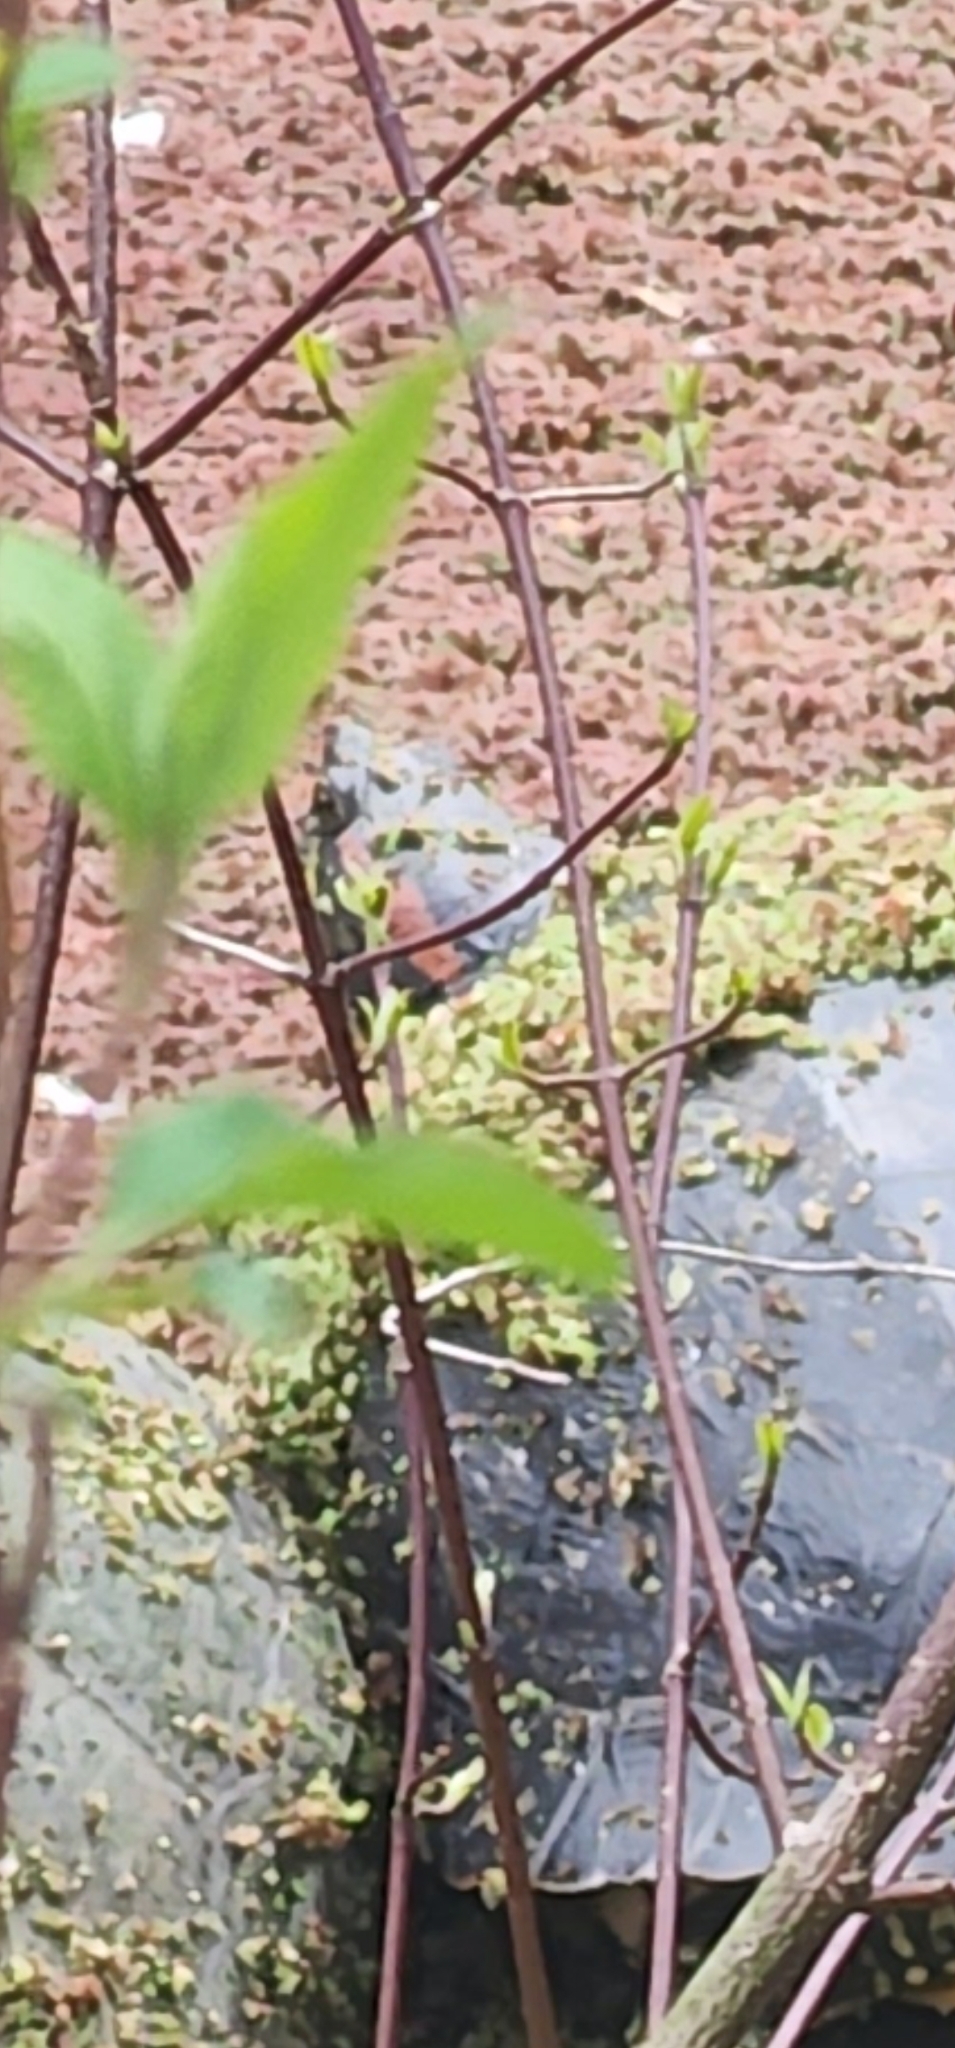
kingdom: Animalia
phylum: Chordata
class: Testudines
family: Emydidae
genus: Trachemys
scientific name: Trachemys scripta
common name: Slider
